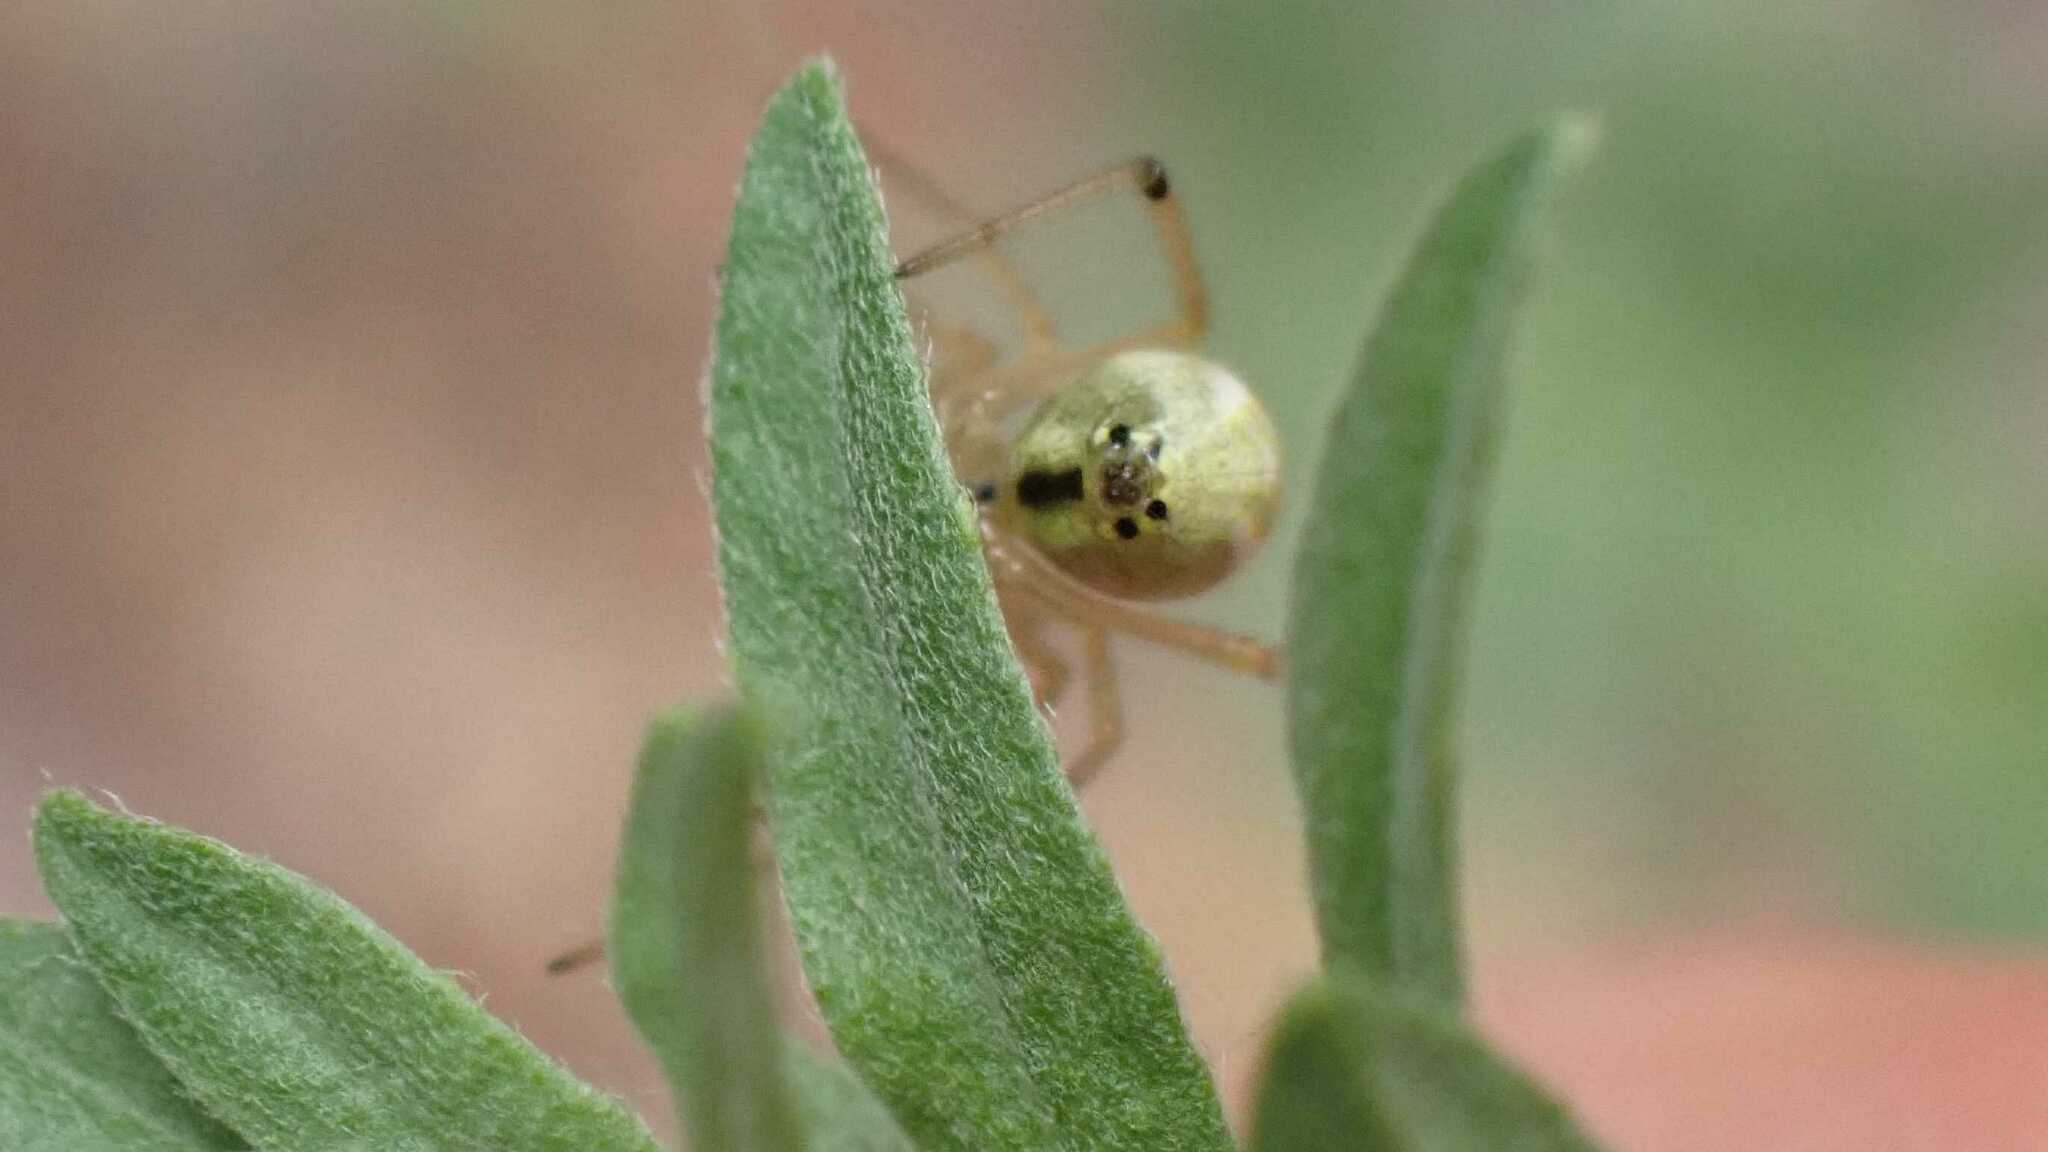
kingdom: Animalia
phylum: Arthropoda
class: Arachnida
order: Araneae
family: Theridiidae
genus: Enoplognatha
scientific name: Enoplognatha
